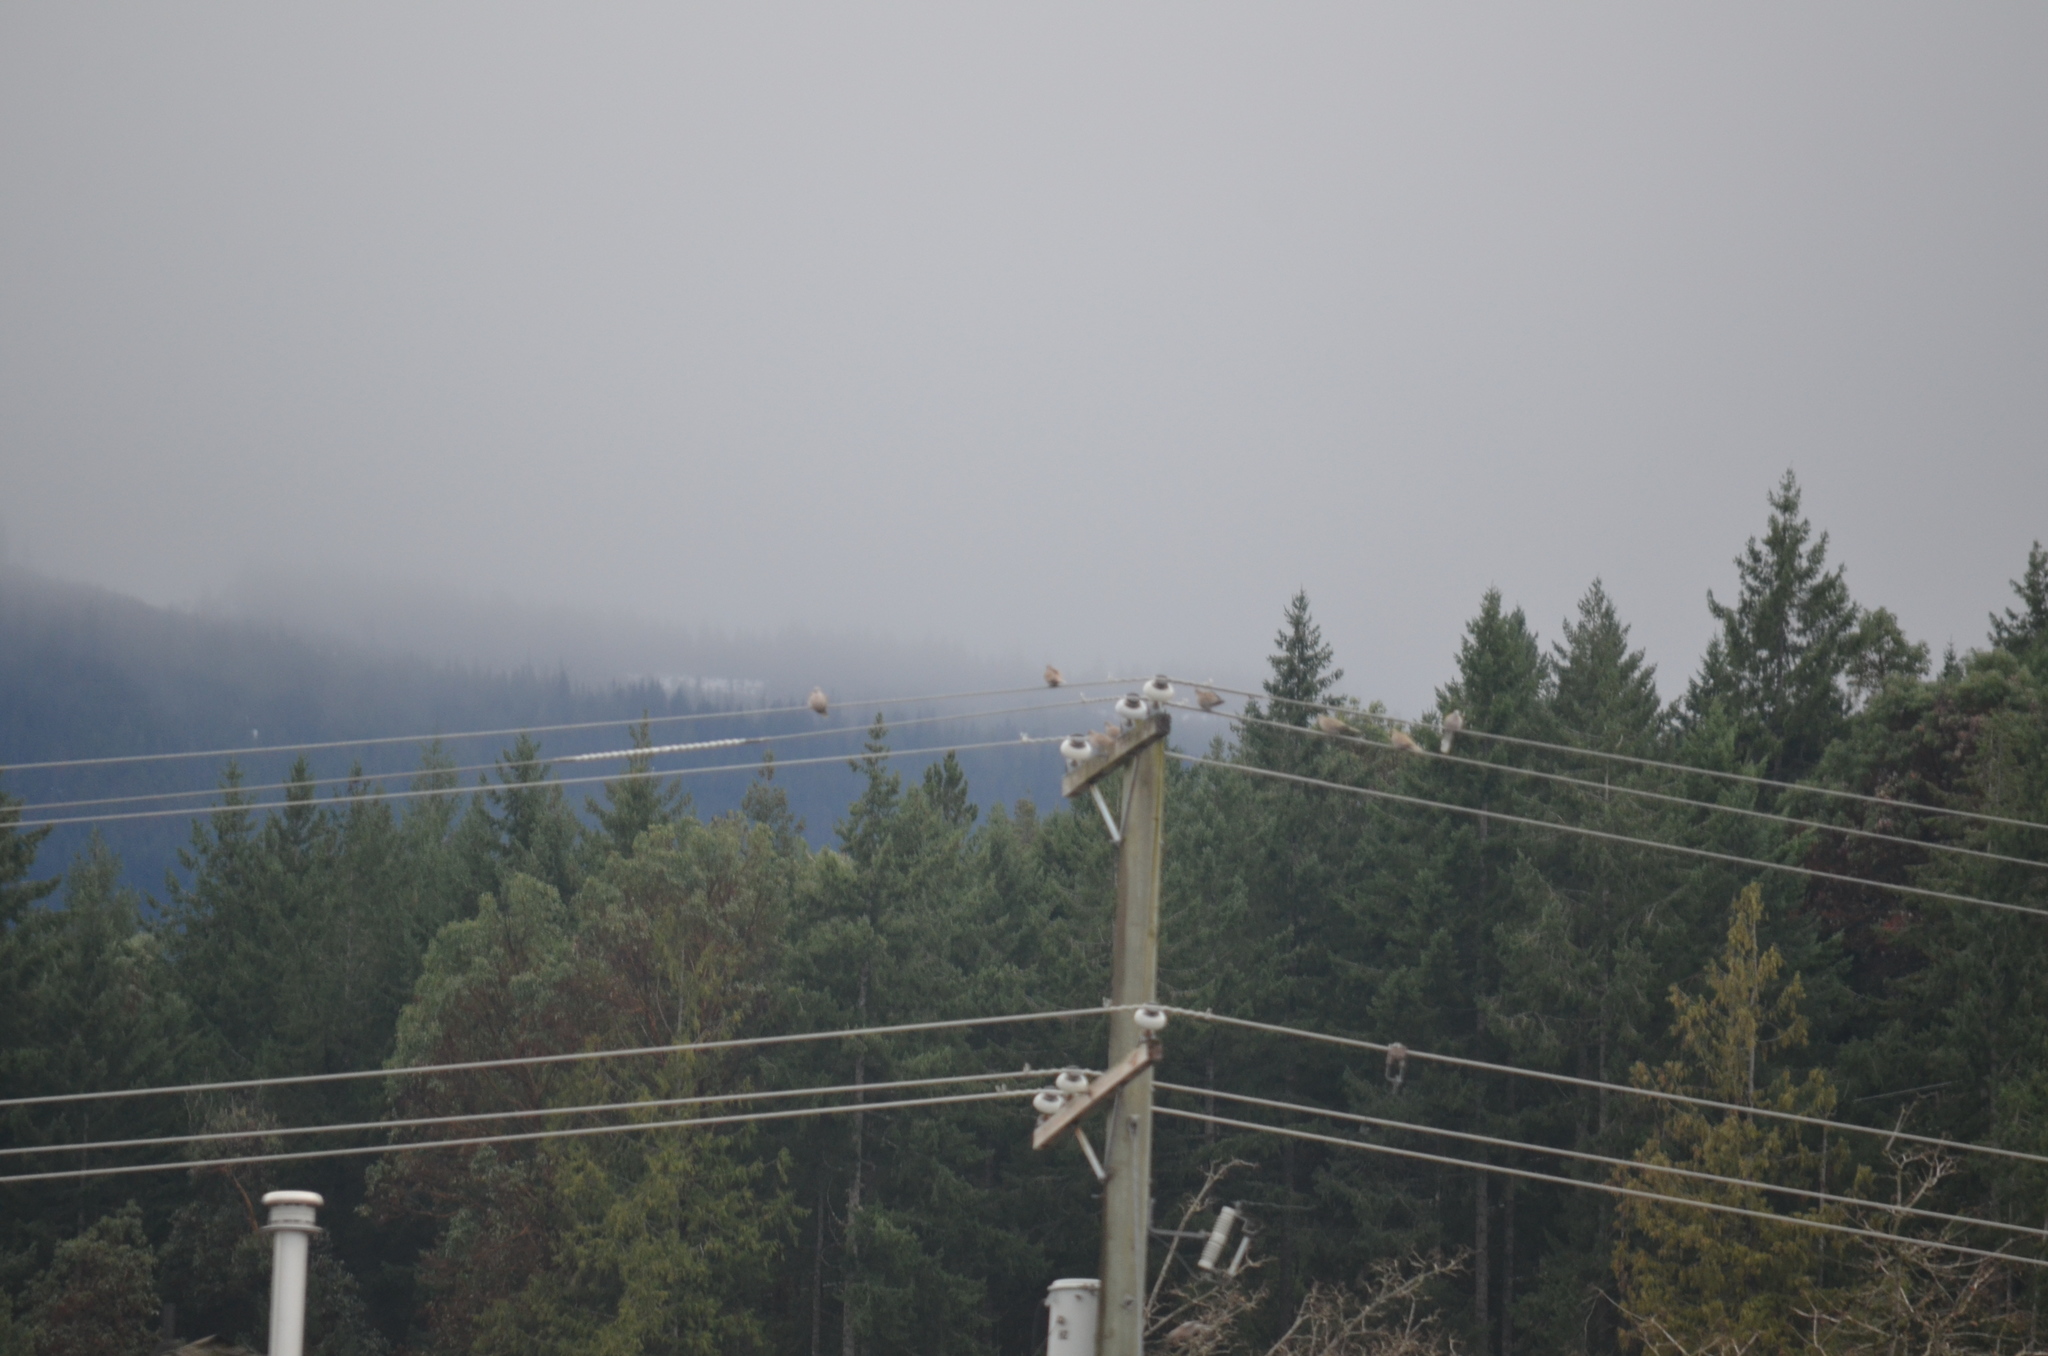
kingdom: Animalia
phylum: Chordata
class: Aves
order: Columbiformes
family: Columbidae
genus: Streptopelia
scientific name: Streptopelia decaocto
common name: Eurasian collared dove
